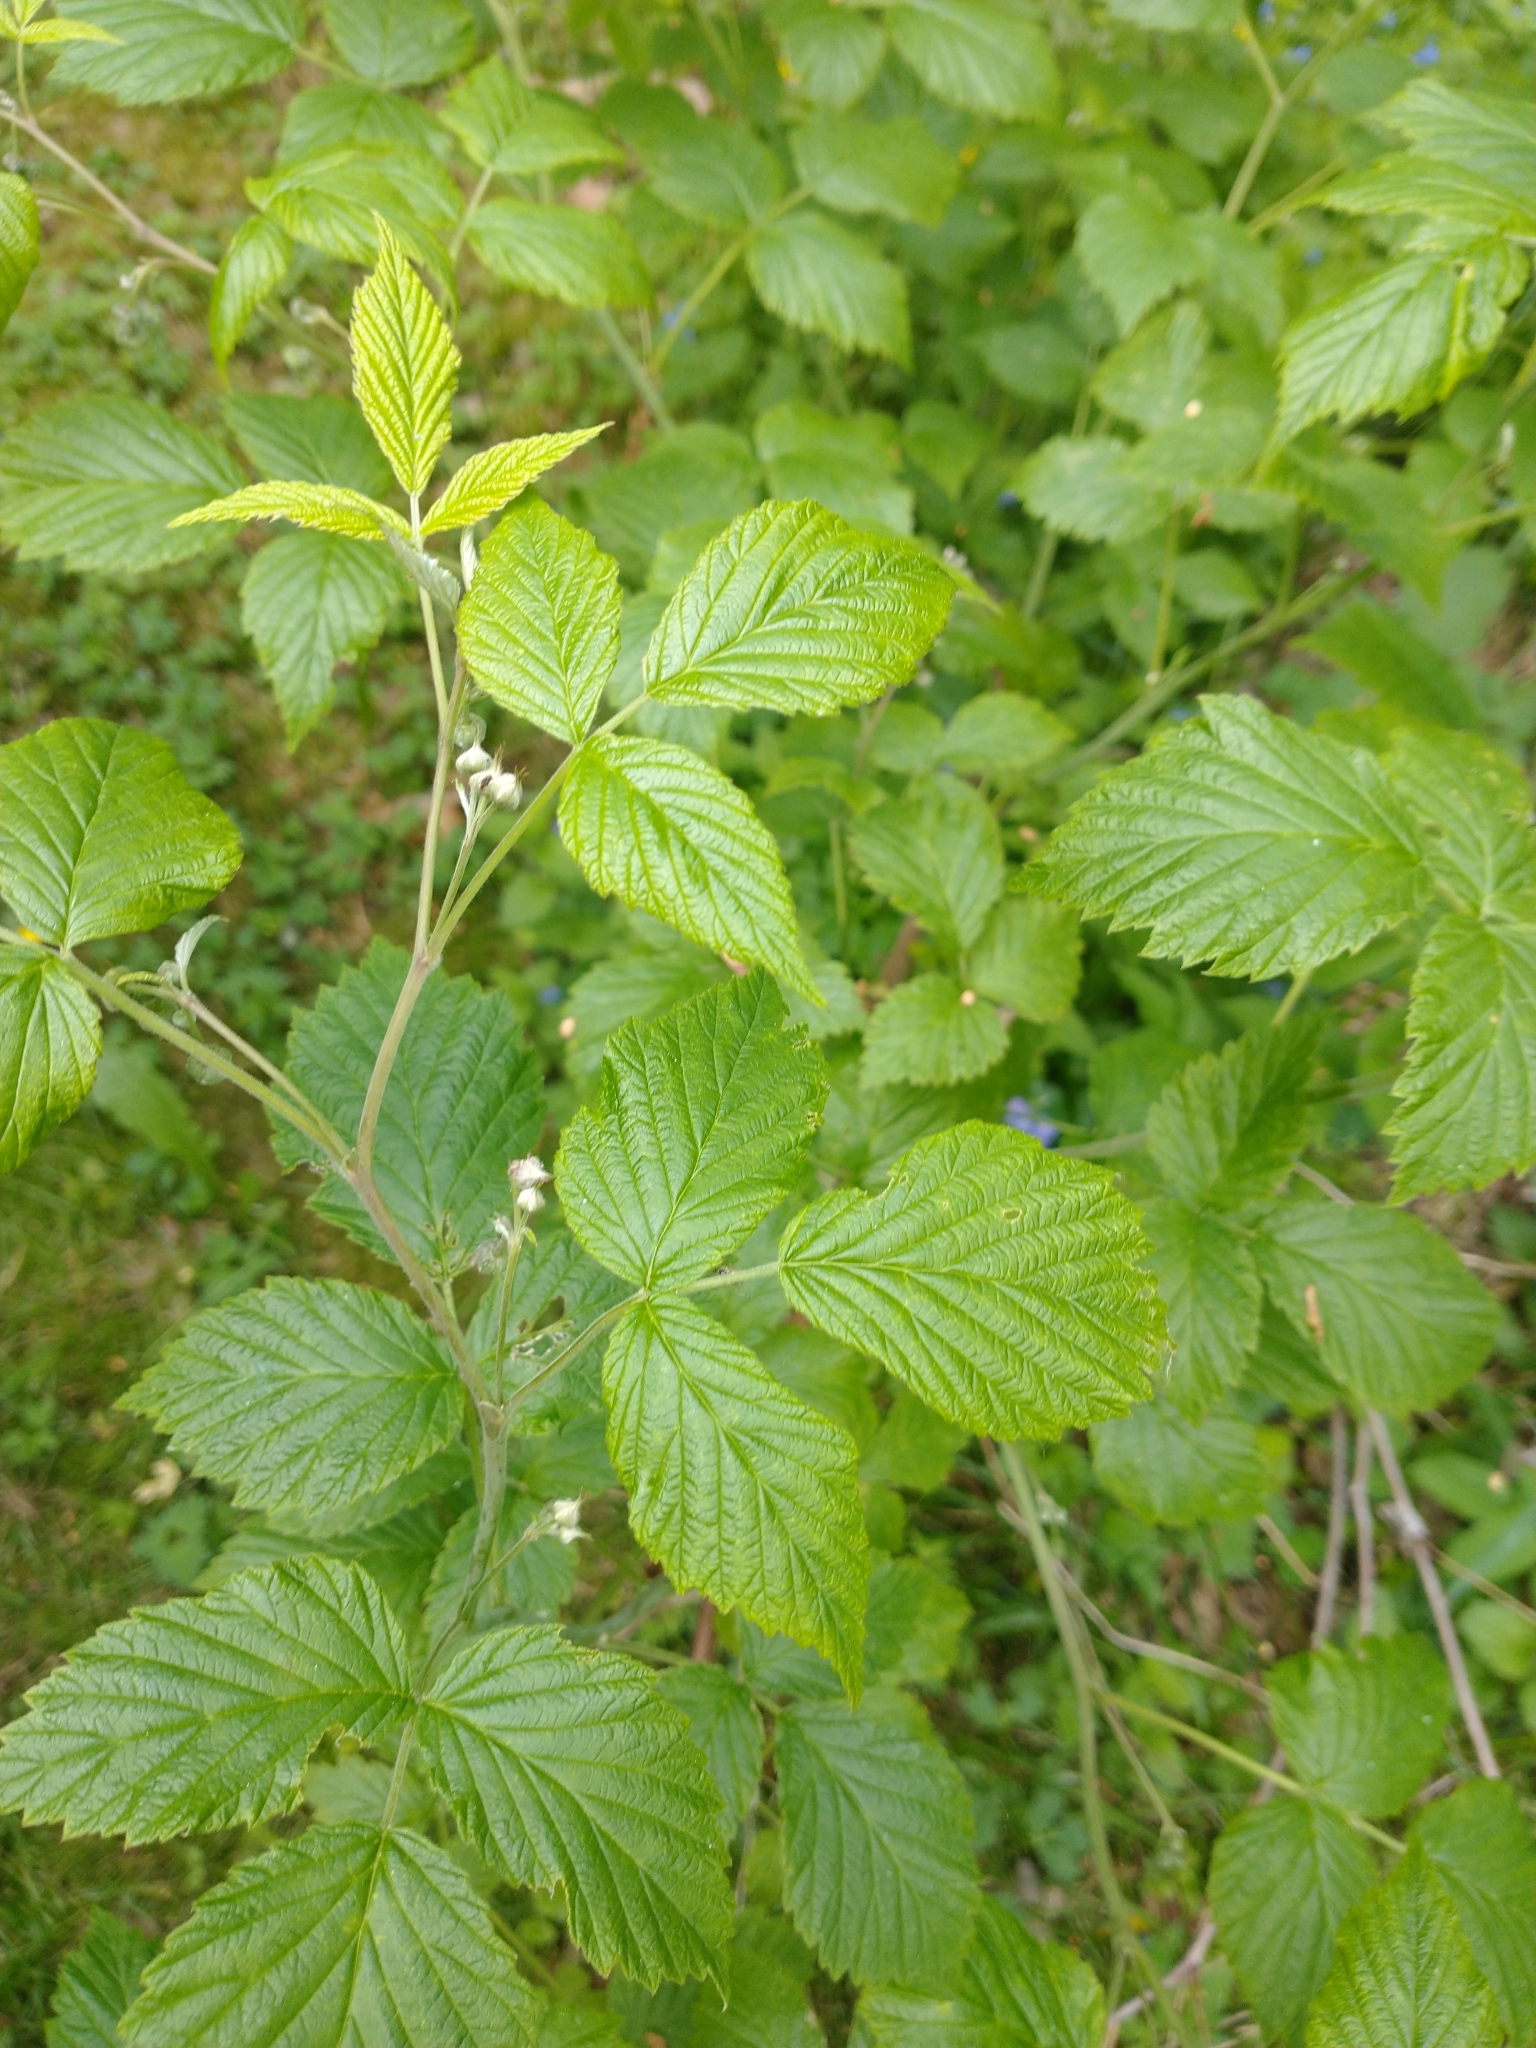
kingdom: Plantae
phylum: Tracheophyta
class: Magnoliopsida
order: Rosales
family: Rosaceae
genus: Rubus
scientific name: Rubus idaeus
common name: Raspberry
